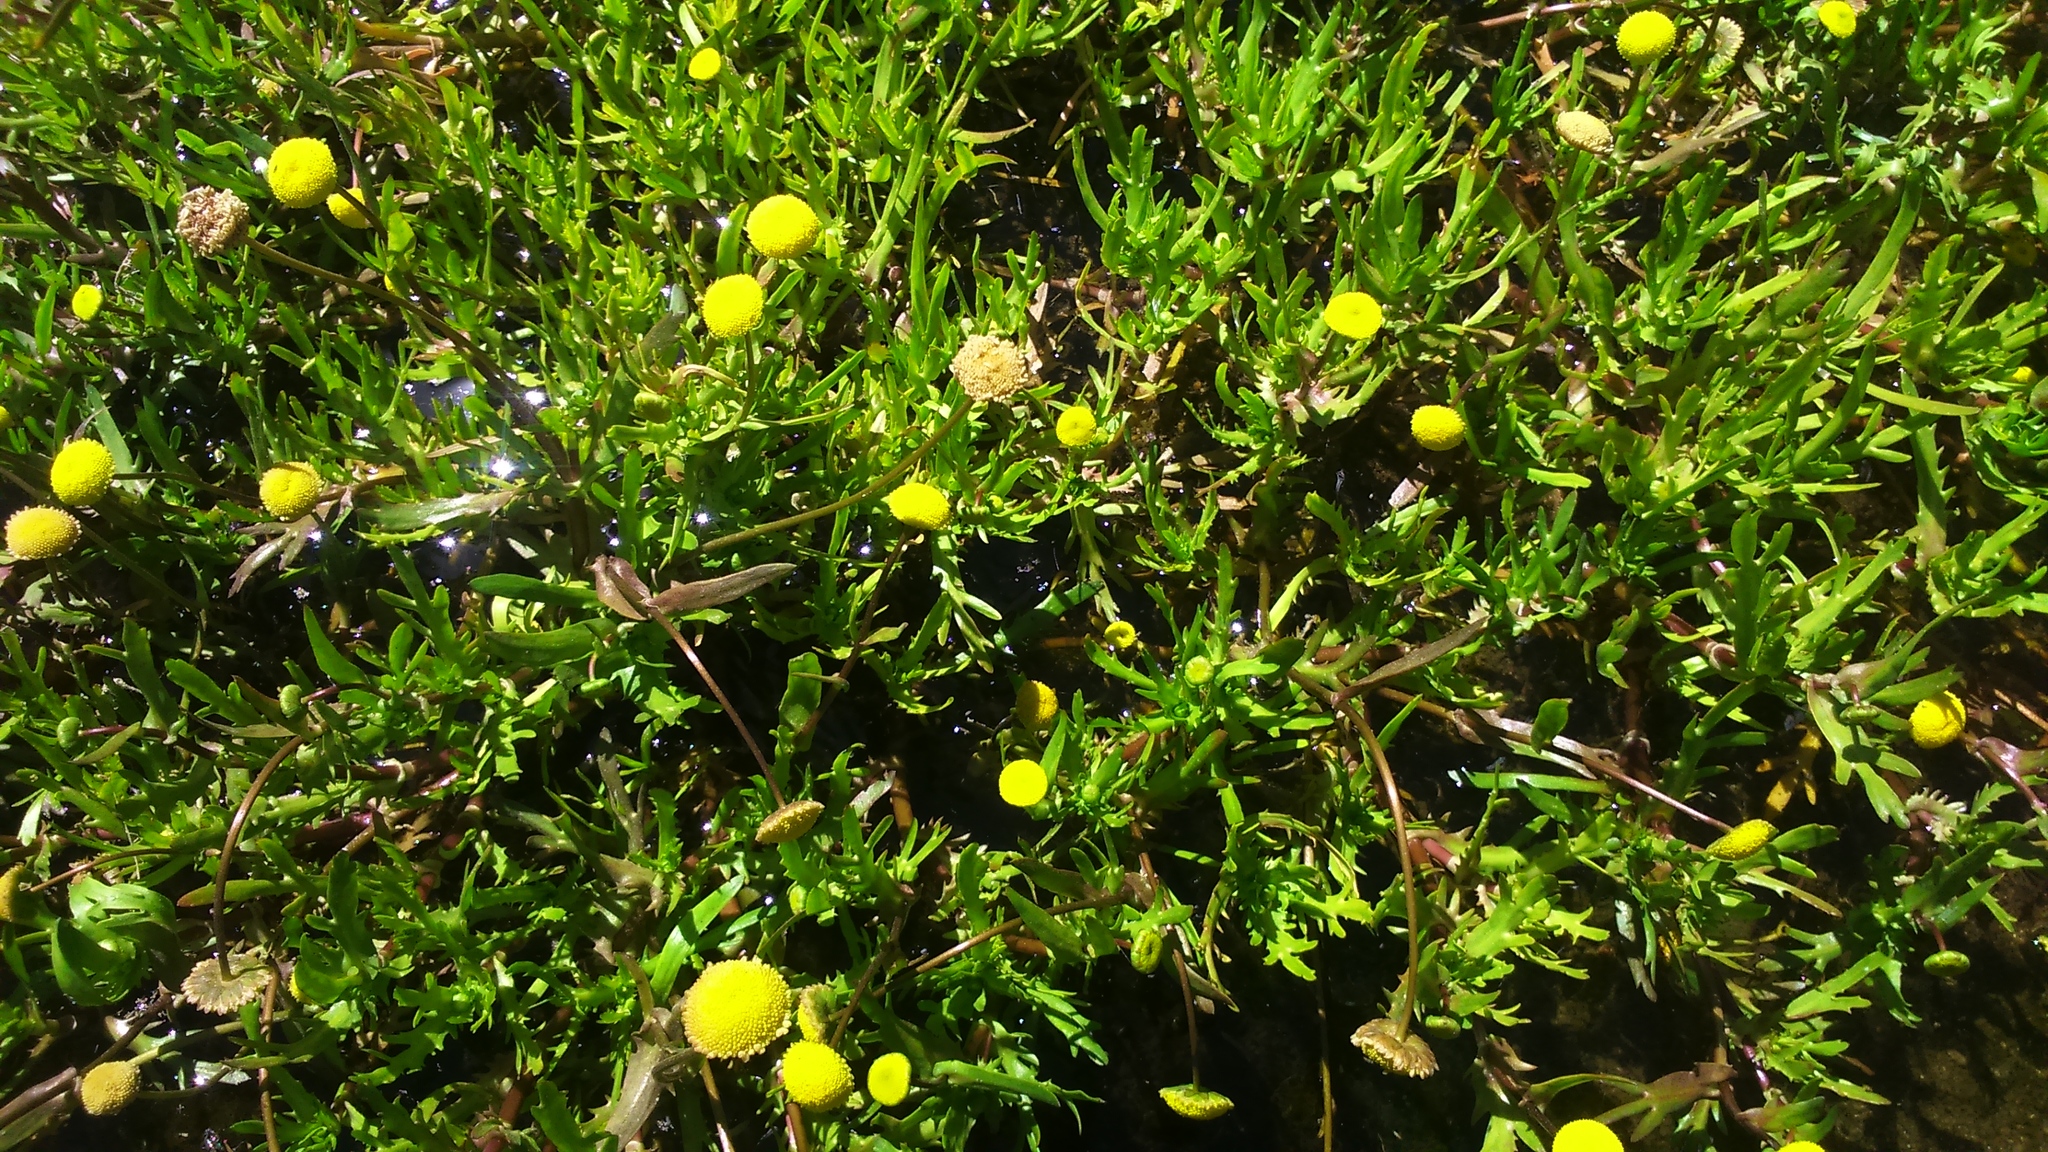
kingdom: Plantae
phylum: Tracheophyta
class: Magnoliopsida
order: Asterales
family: Asteraceae
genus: Cotula
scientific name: Cotula coronopifolia
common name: Buttonweed
